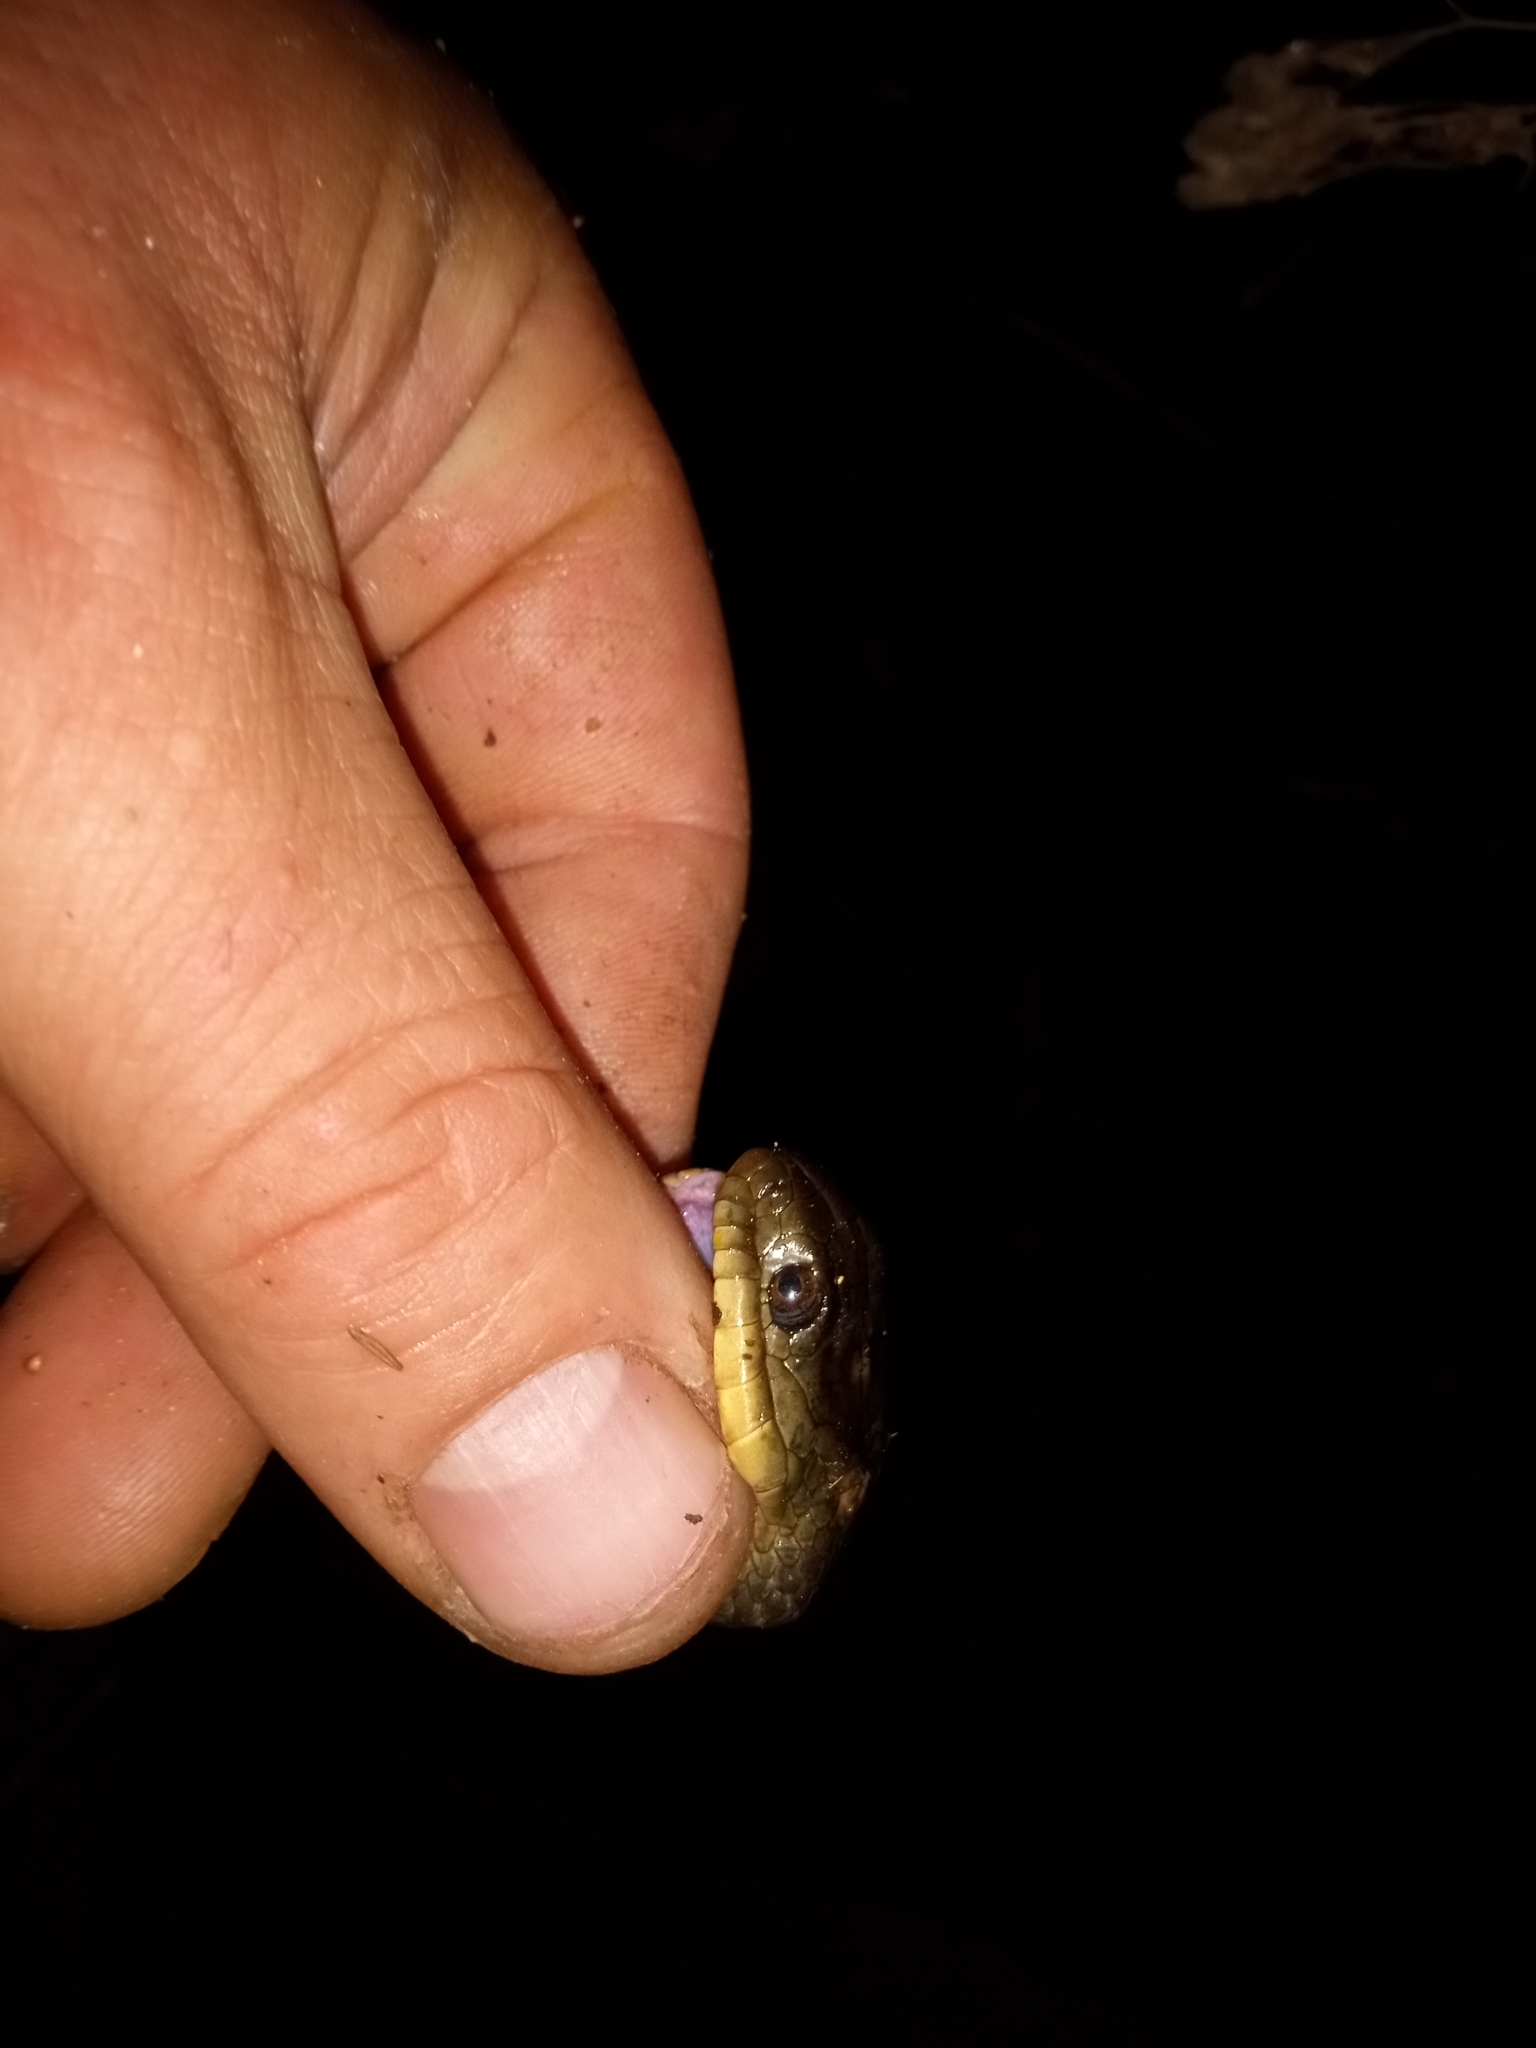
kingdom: Animalia
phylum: Chordata
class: Squamata
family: Colubridae
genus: Nerodia
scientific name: Nerodia cyclopion
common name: Mississippi green water snake
